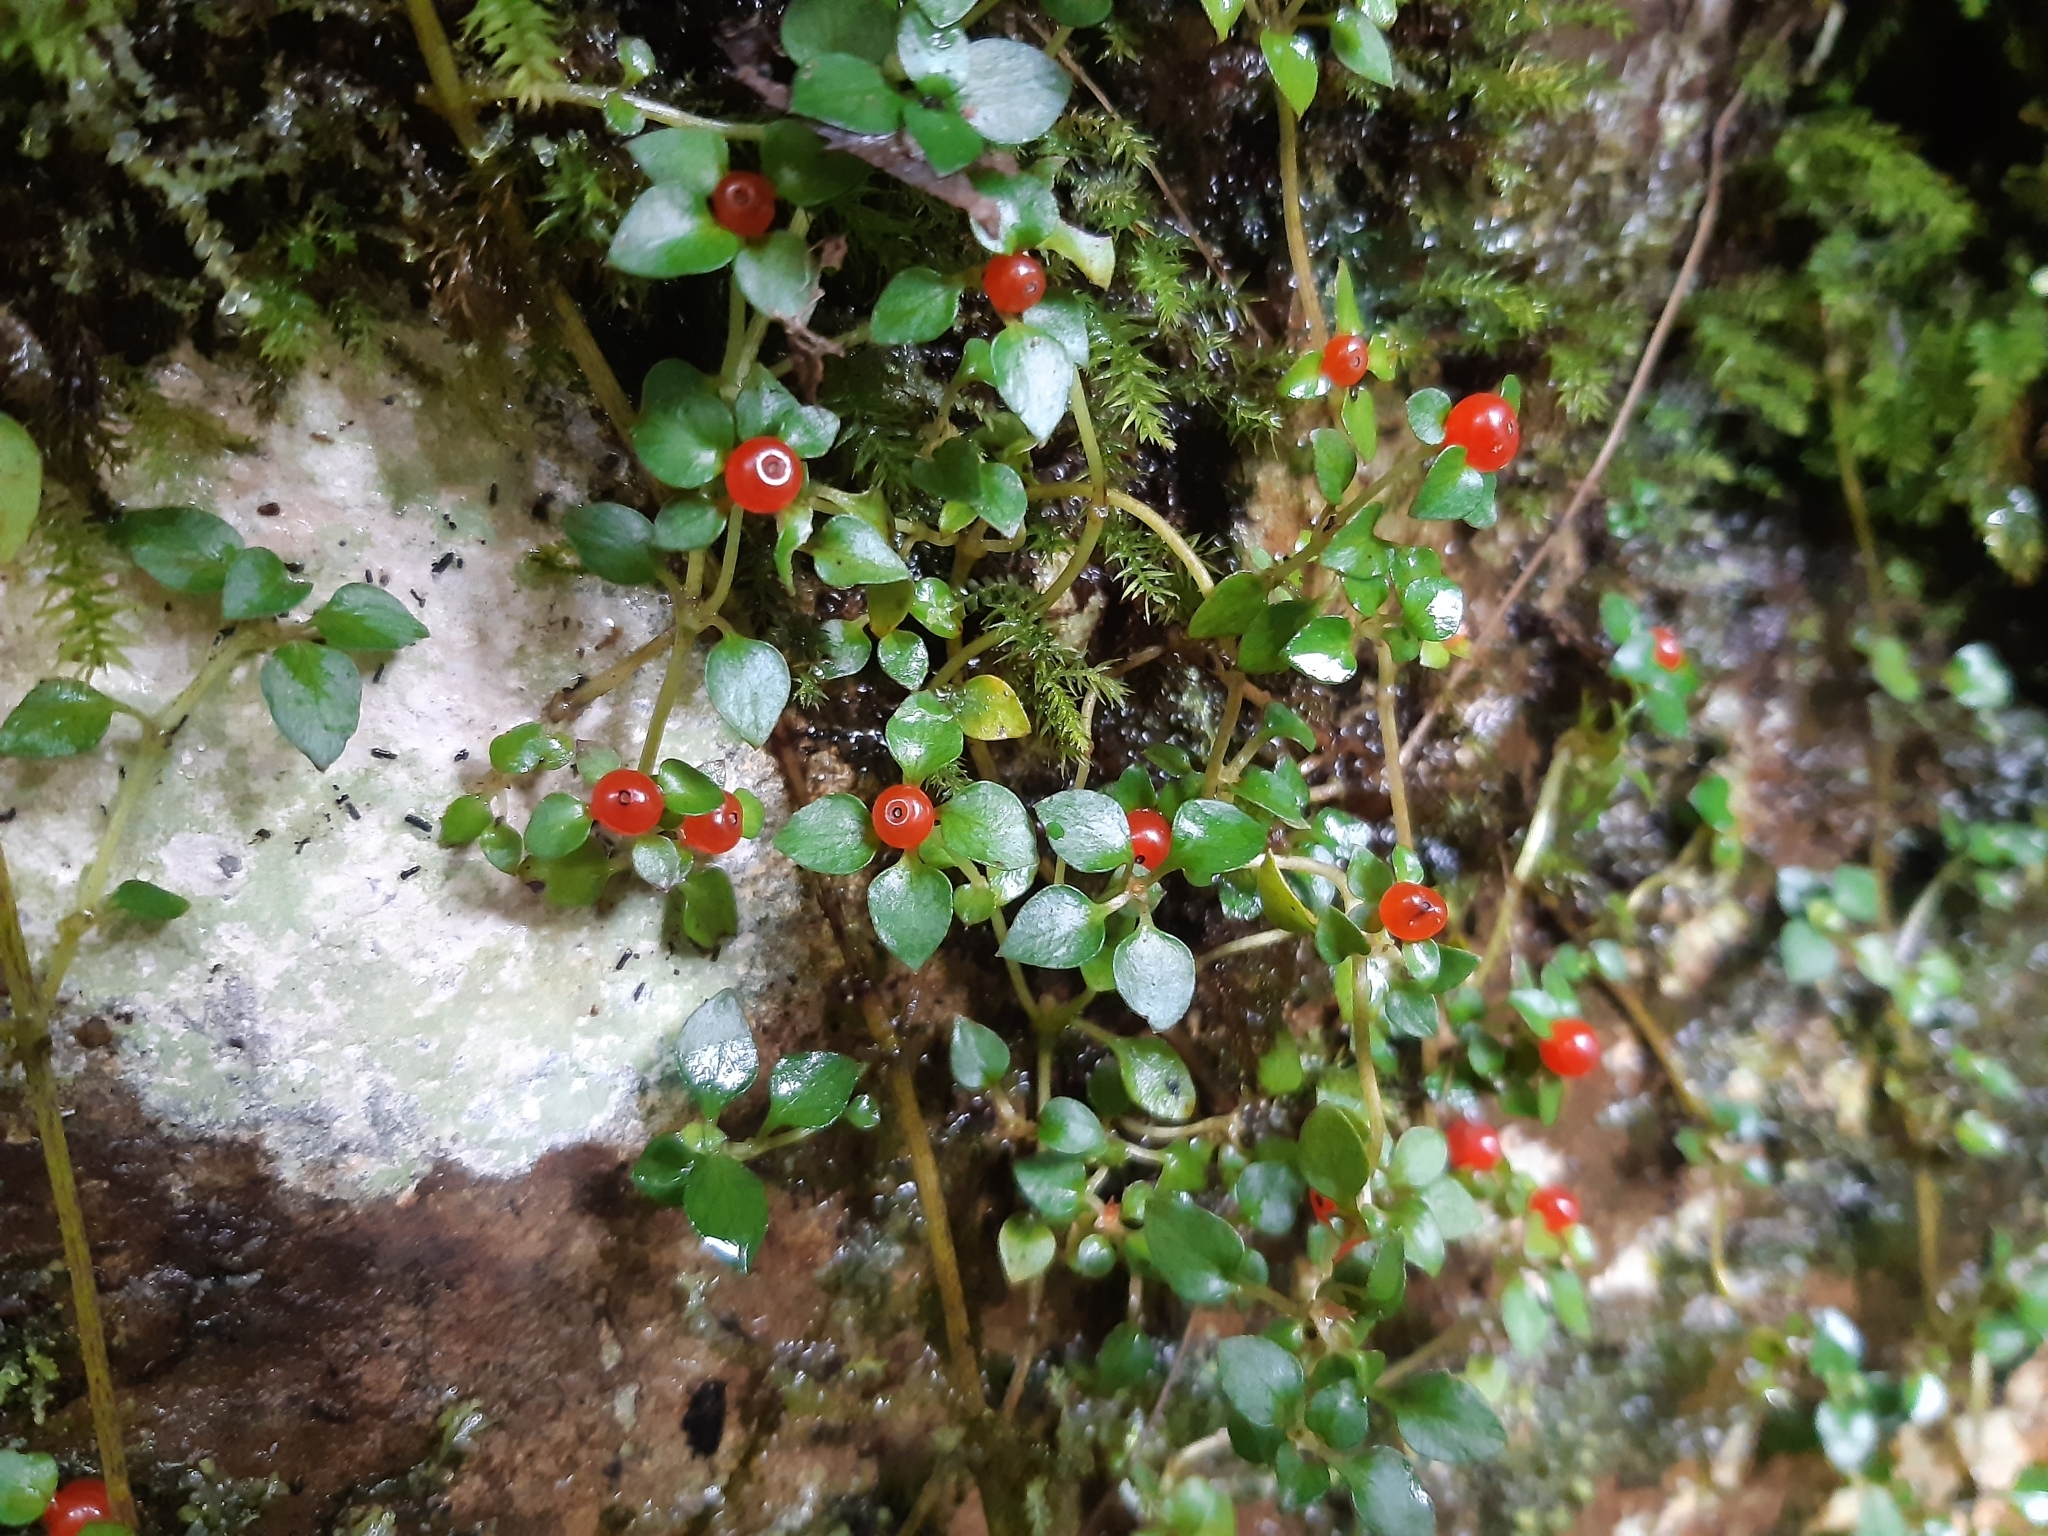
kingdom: Plantae
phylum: Tracheophyta
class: Magnoliopsida
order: Gentianales
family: Rubiaceae
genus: Nertera
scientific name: Nertera granadensis
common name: Beadplant
